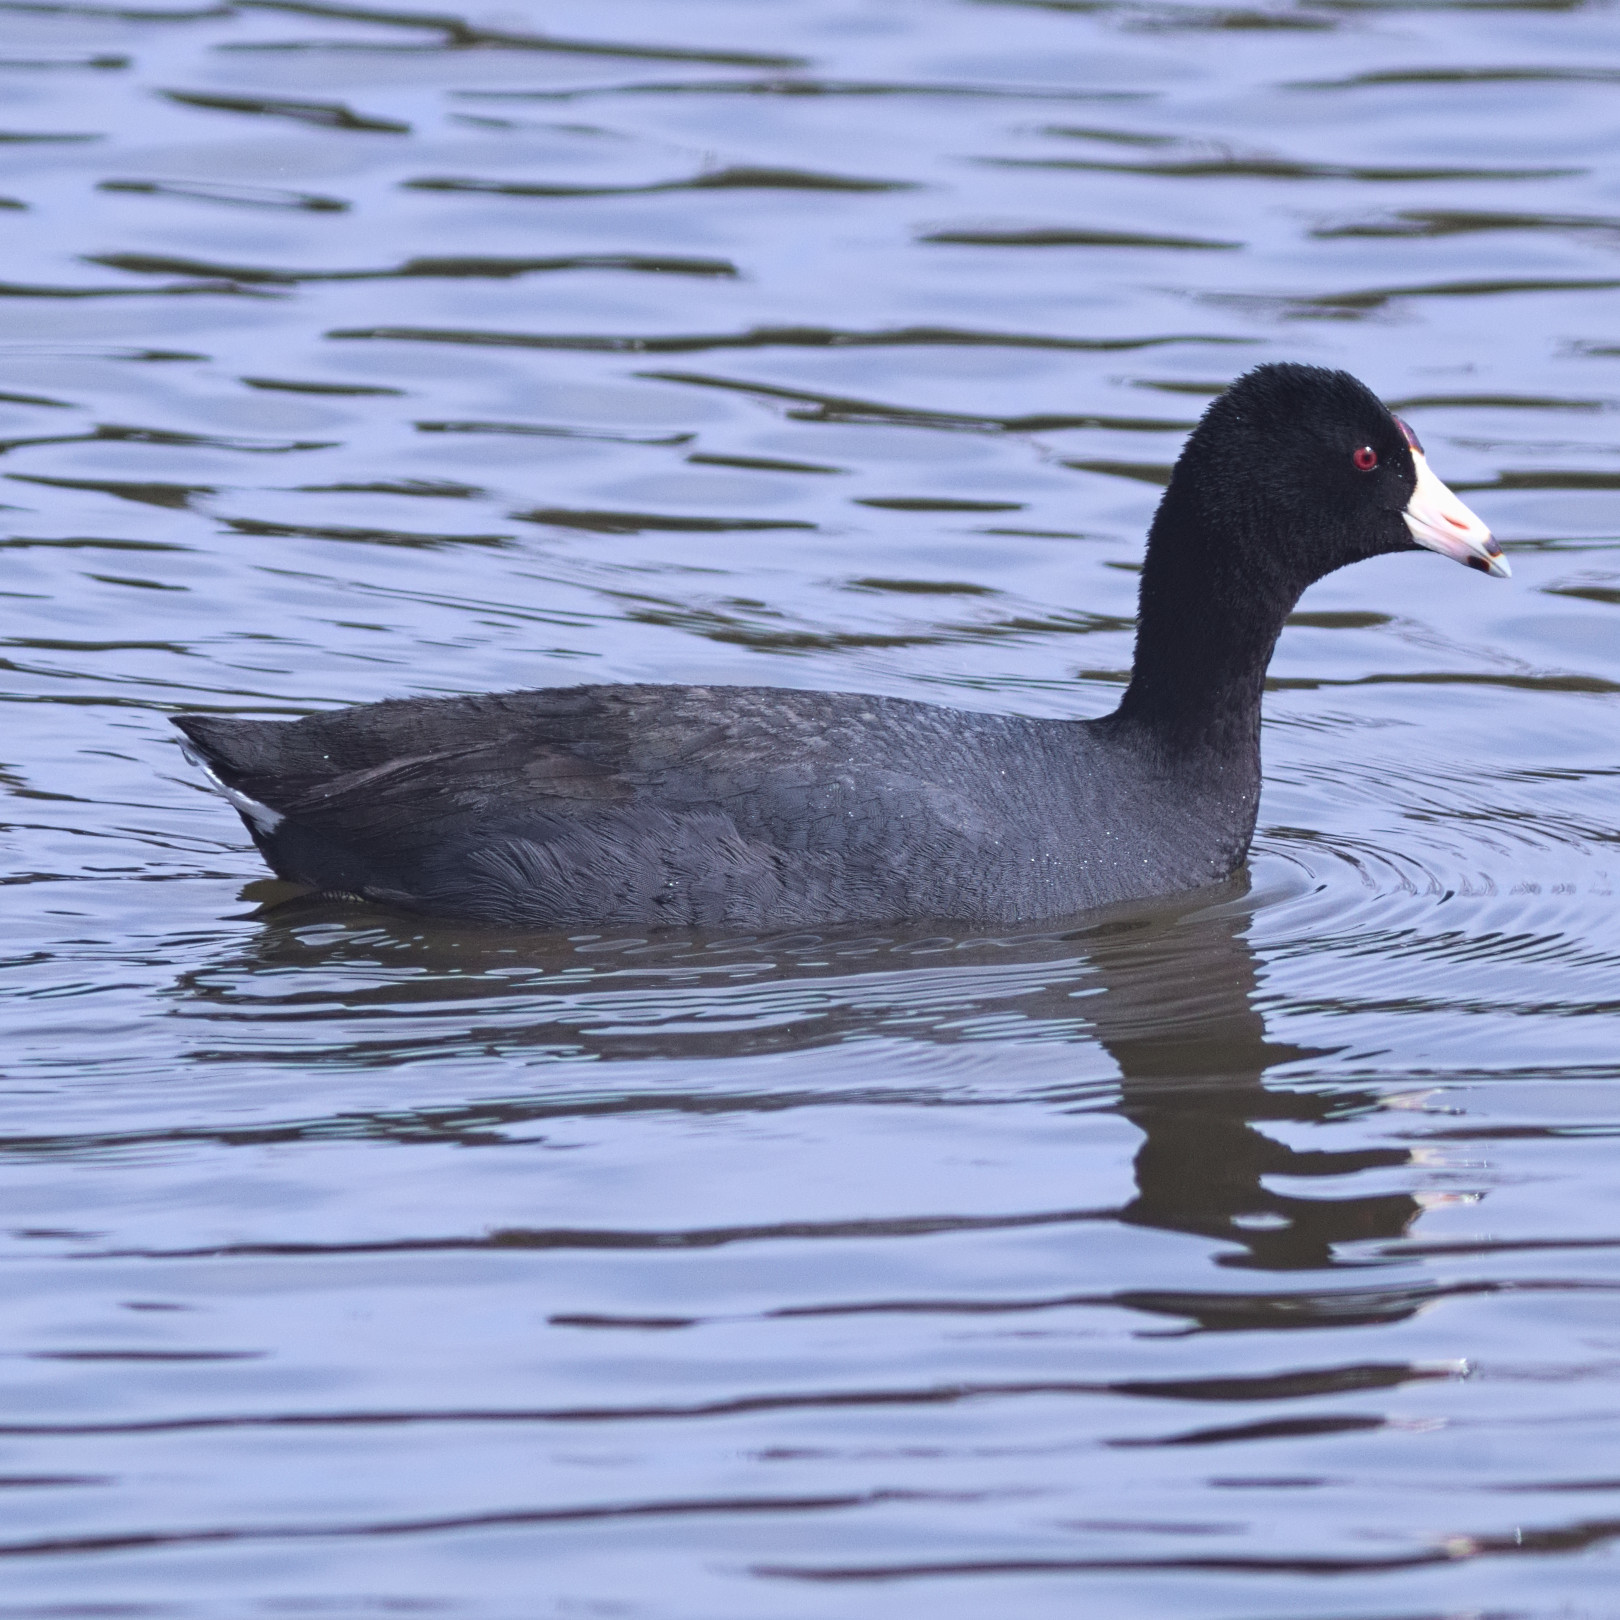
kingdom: Animalia
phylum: Chordata
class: Aves
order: Gruiformes
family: Rallidae
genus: Fulica
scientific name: Fulica americana
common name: American coot
